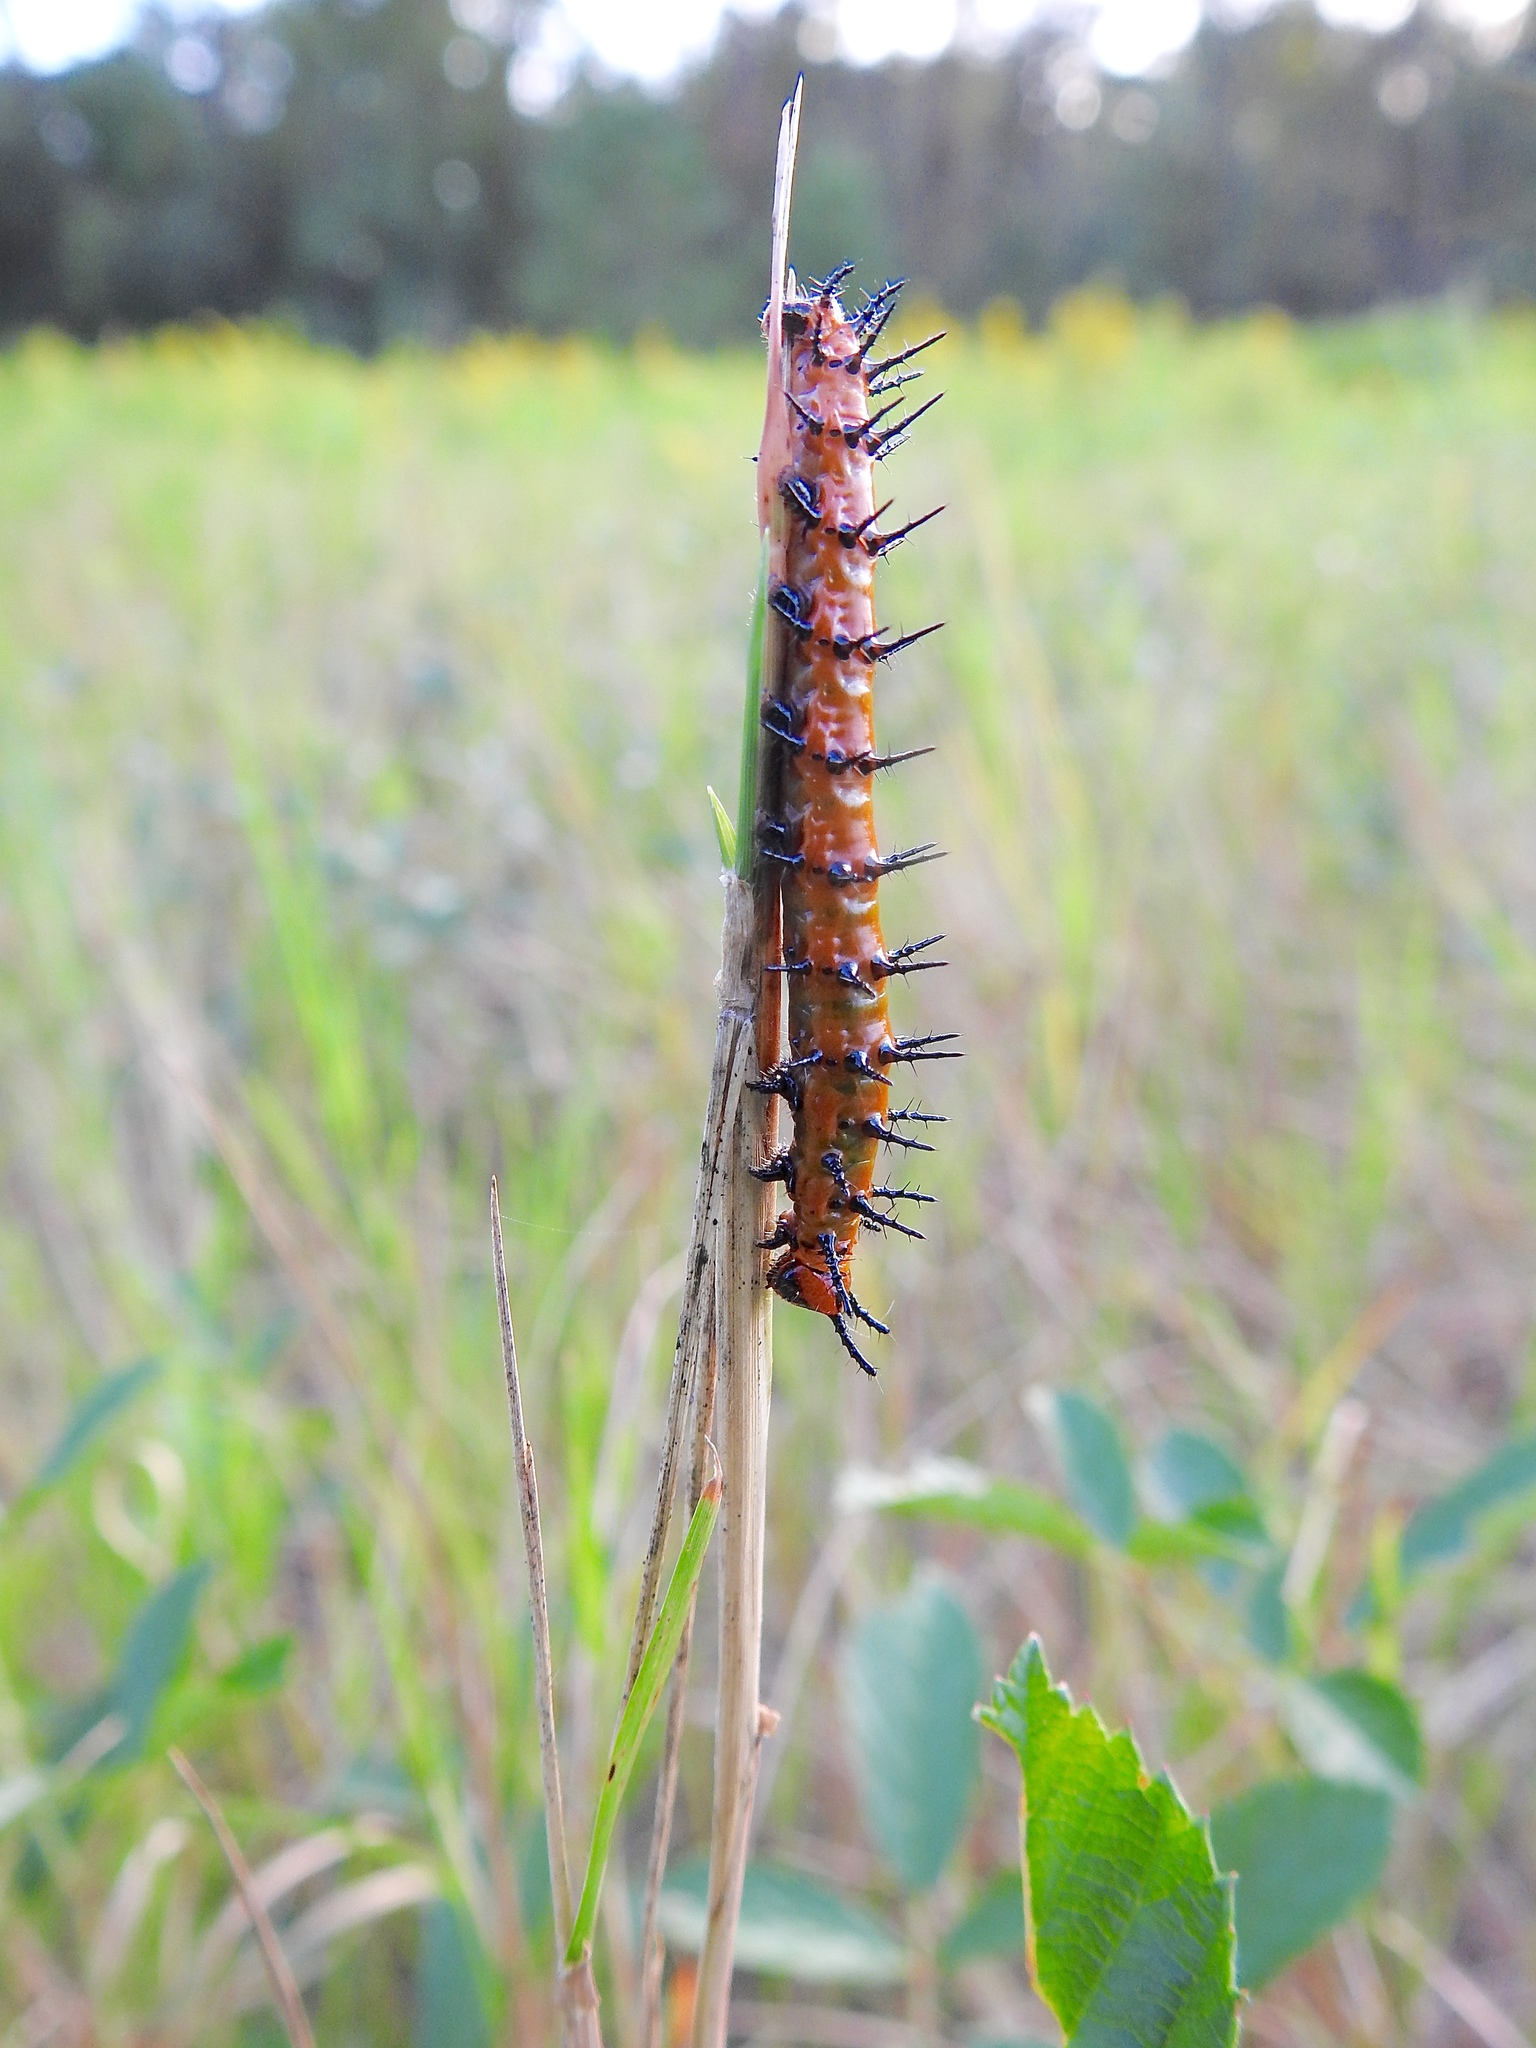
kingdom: Animalia
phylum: Arthropoda
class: Insecta
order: Lepidoptera
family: Nymphalidae
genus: Dione
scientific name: Dione vanillae
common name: Gulf fritillary
